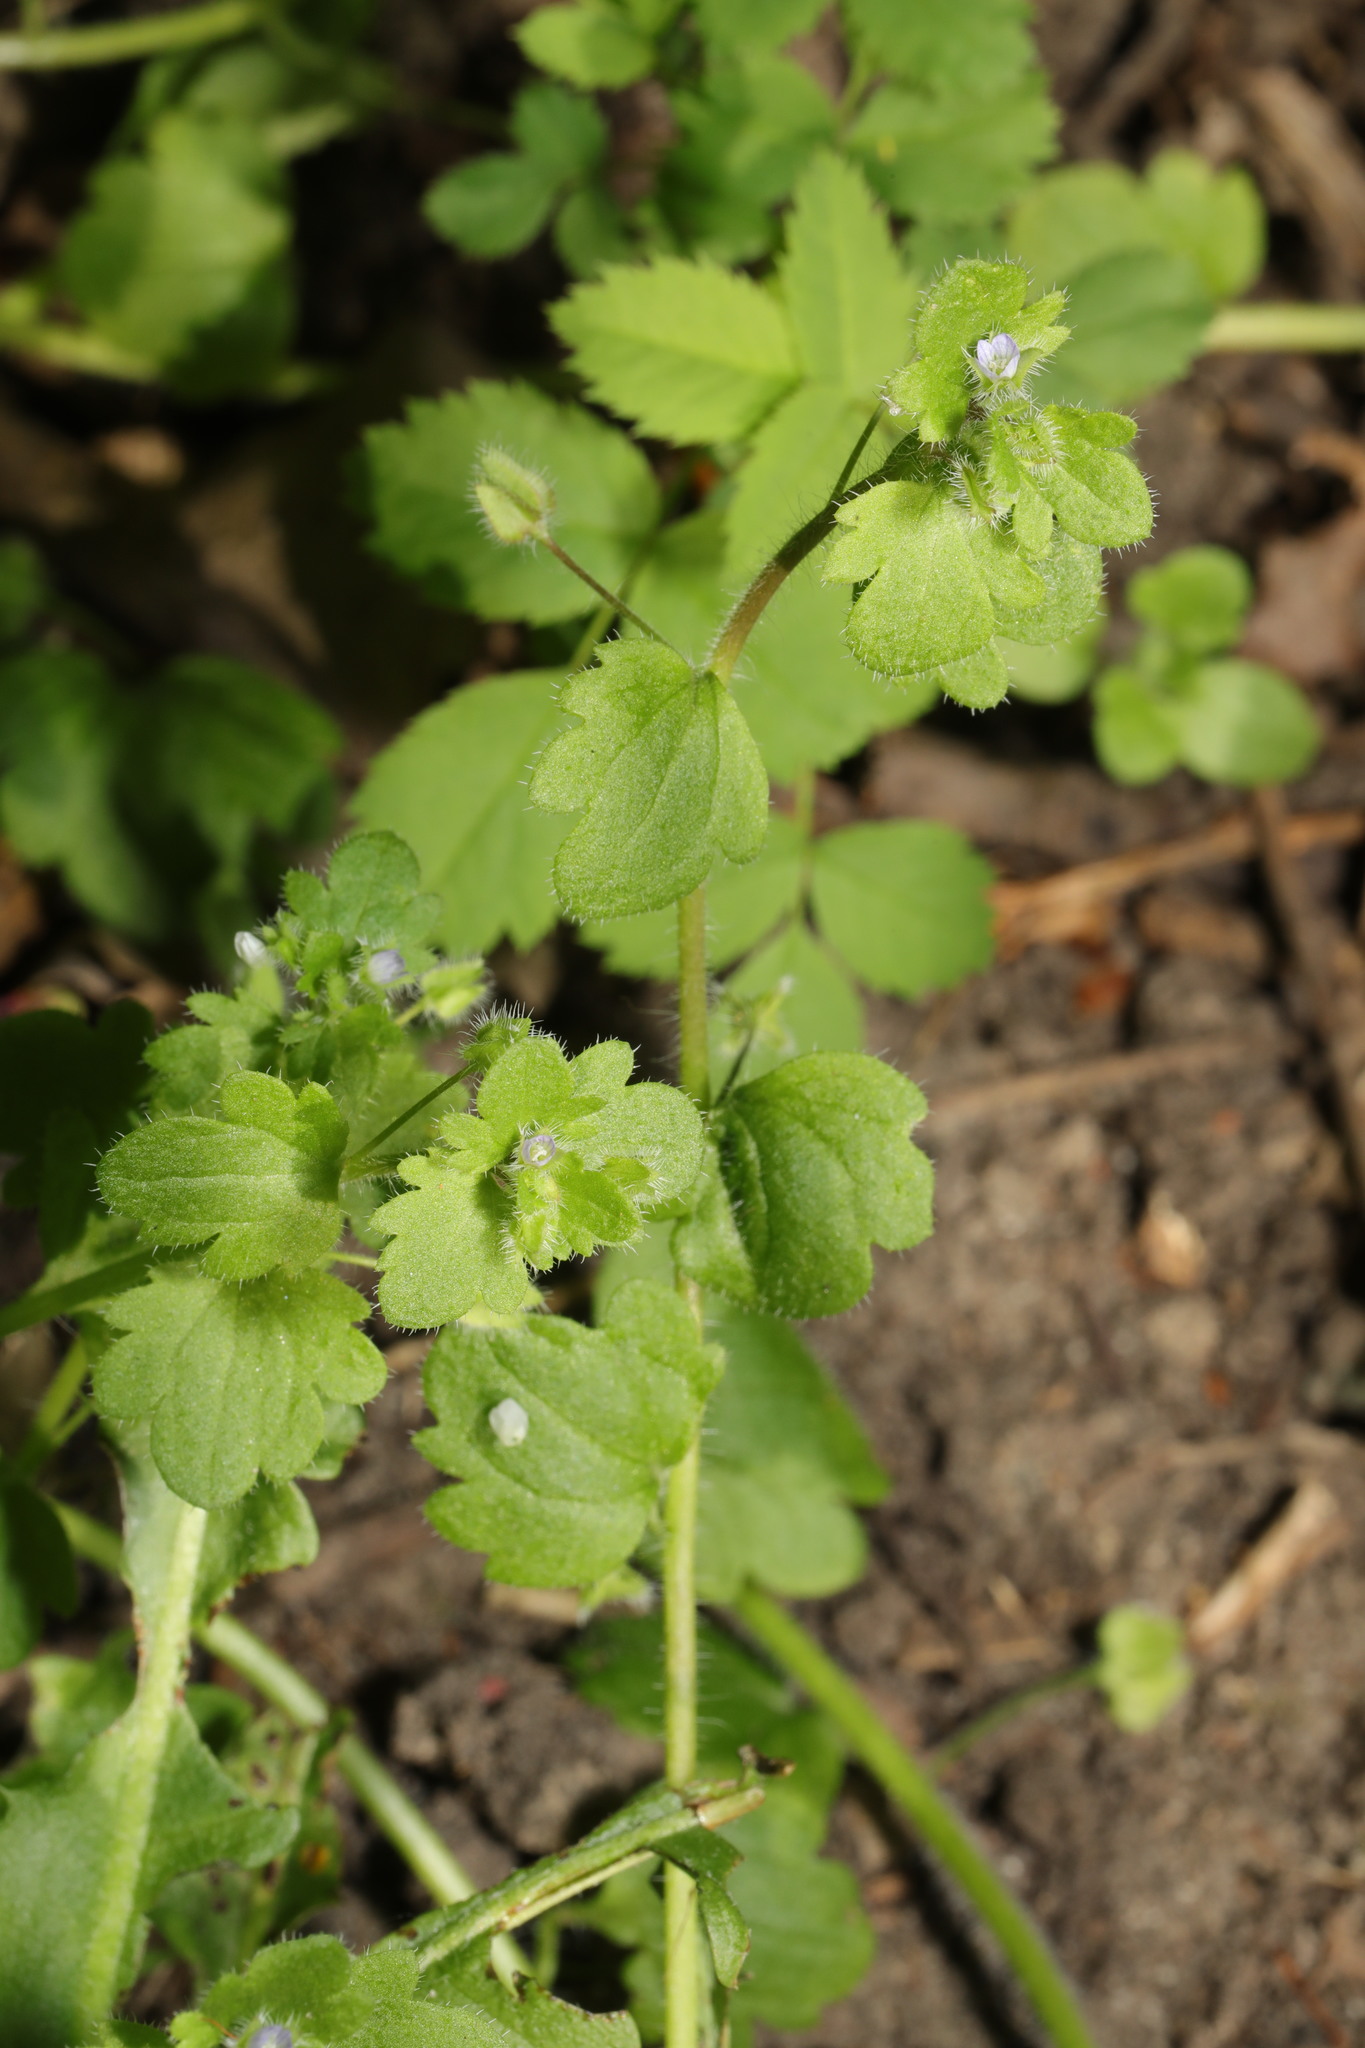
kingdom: Plantae
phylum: Tracheophyta
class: Magnoliopsida
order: Lamiales
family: Plantaginaceae
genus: Veronica
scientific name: Veronica sublobata
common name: False ivy-leaved speedwell
